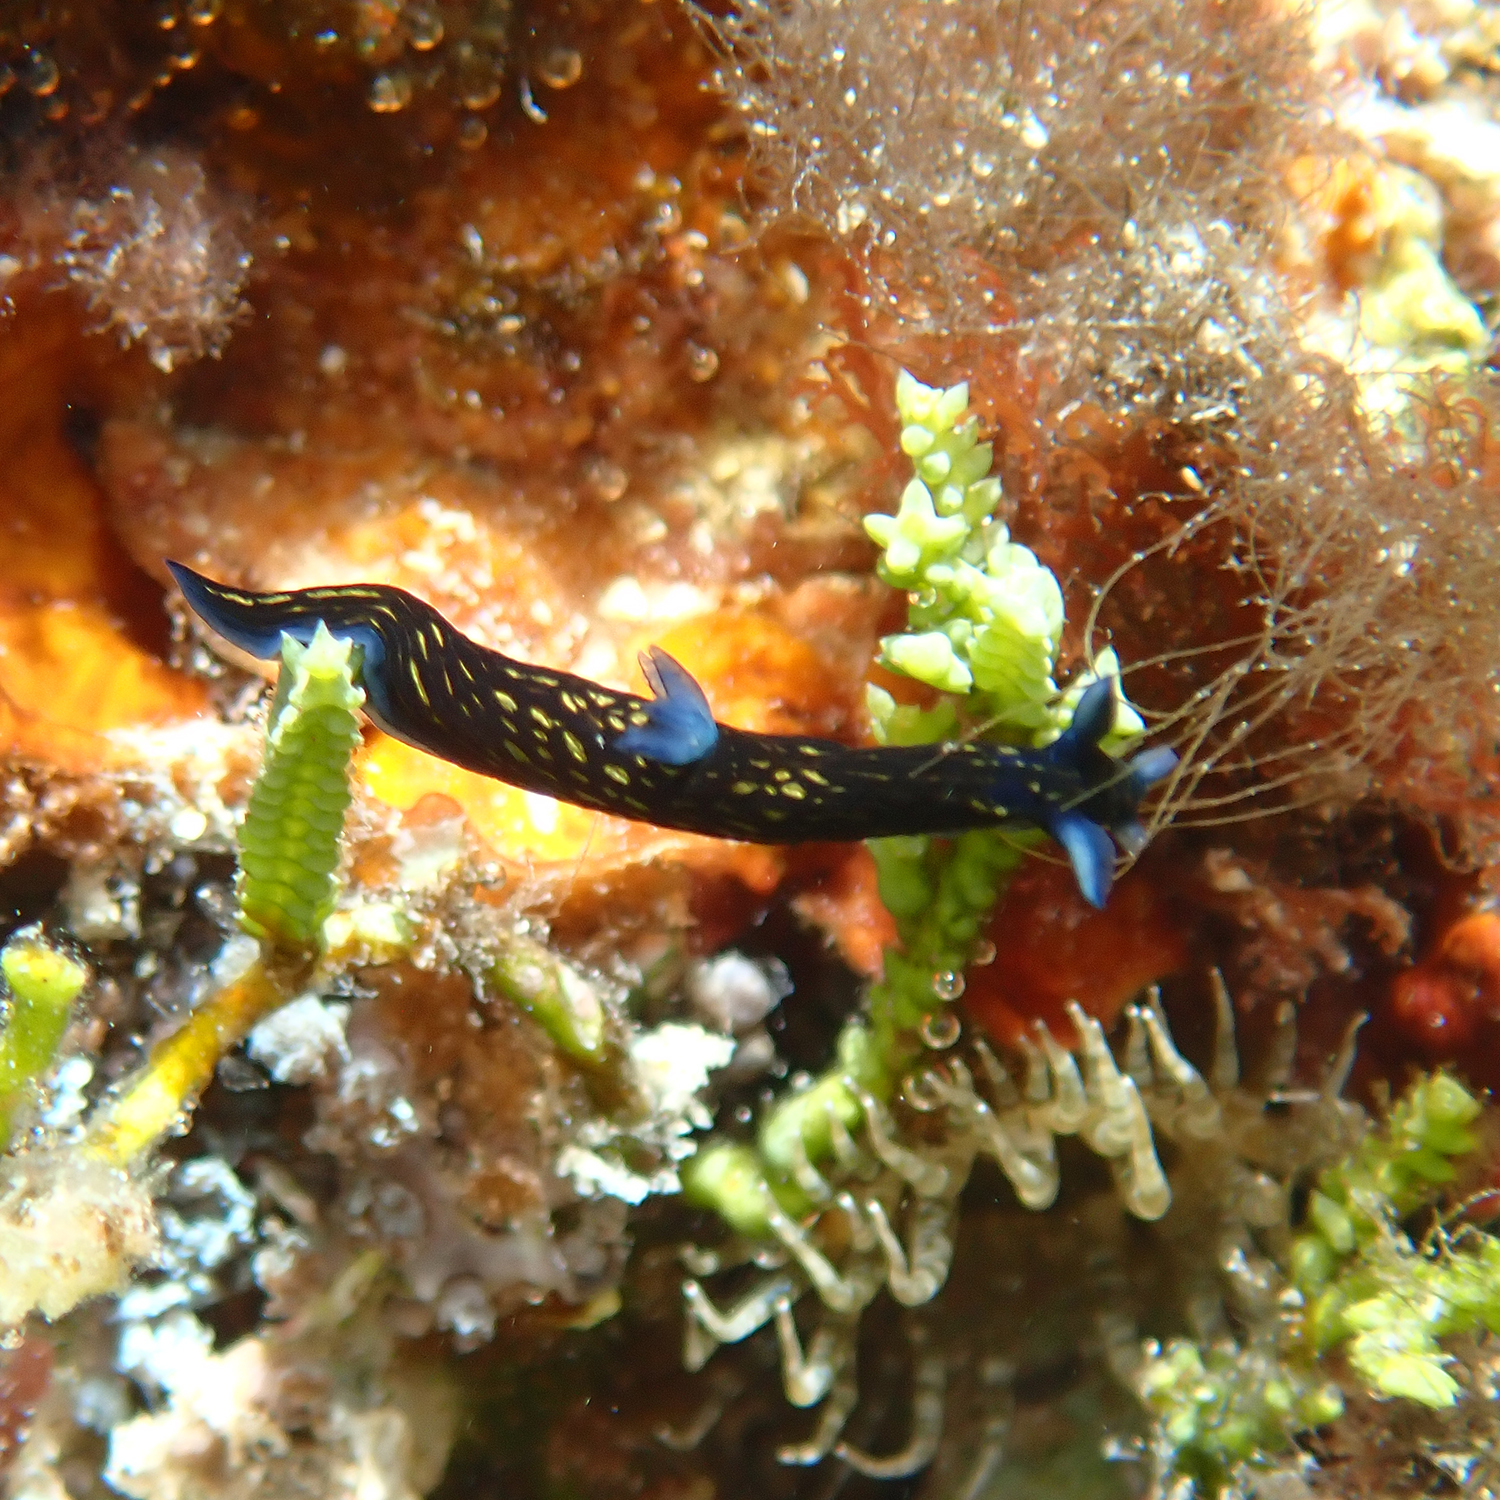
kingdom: Animalia
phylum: Mollusca
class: Gastropoda
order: Nudibranchia
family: Polyceridae
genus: Roboastra
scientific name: Roboastra gracilis
